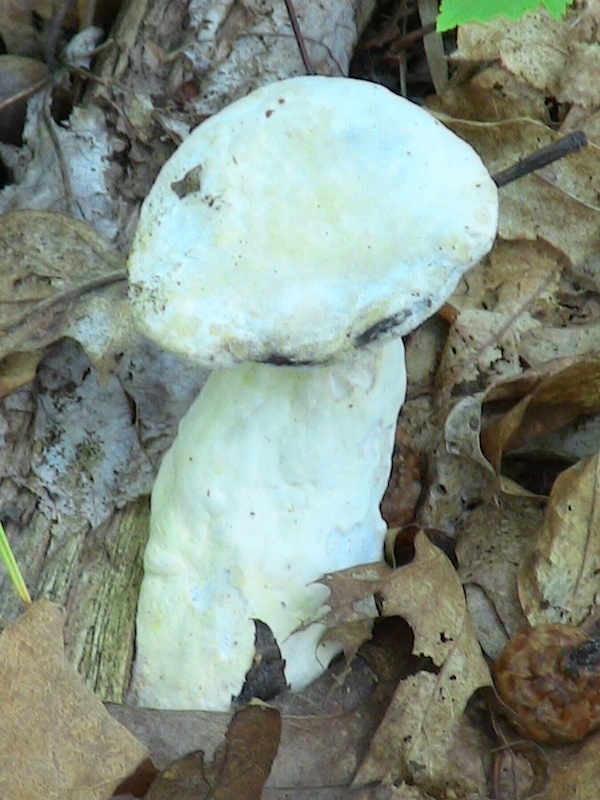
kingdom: Fungi
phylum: Ascomycota
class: Sordariomycetes
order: Hypocreales
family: Hypocreaceae
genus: Hypomyces
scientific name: Hypomyces hyalinus
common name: Amanita mold
